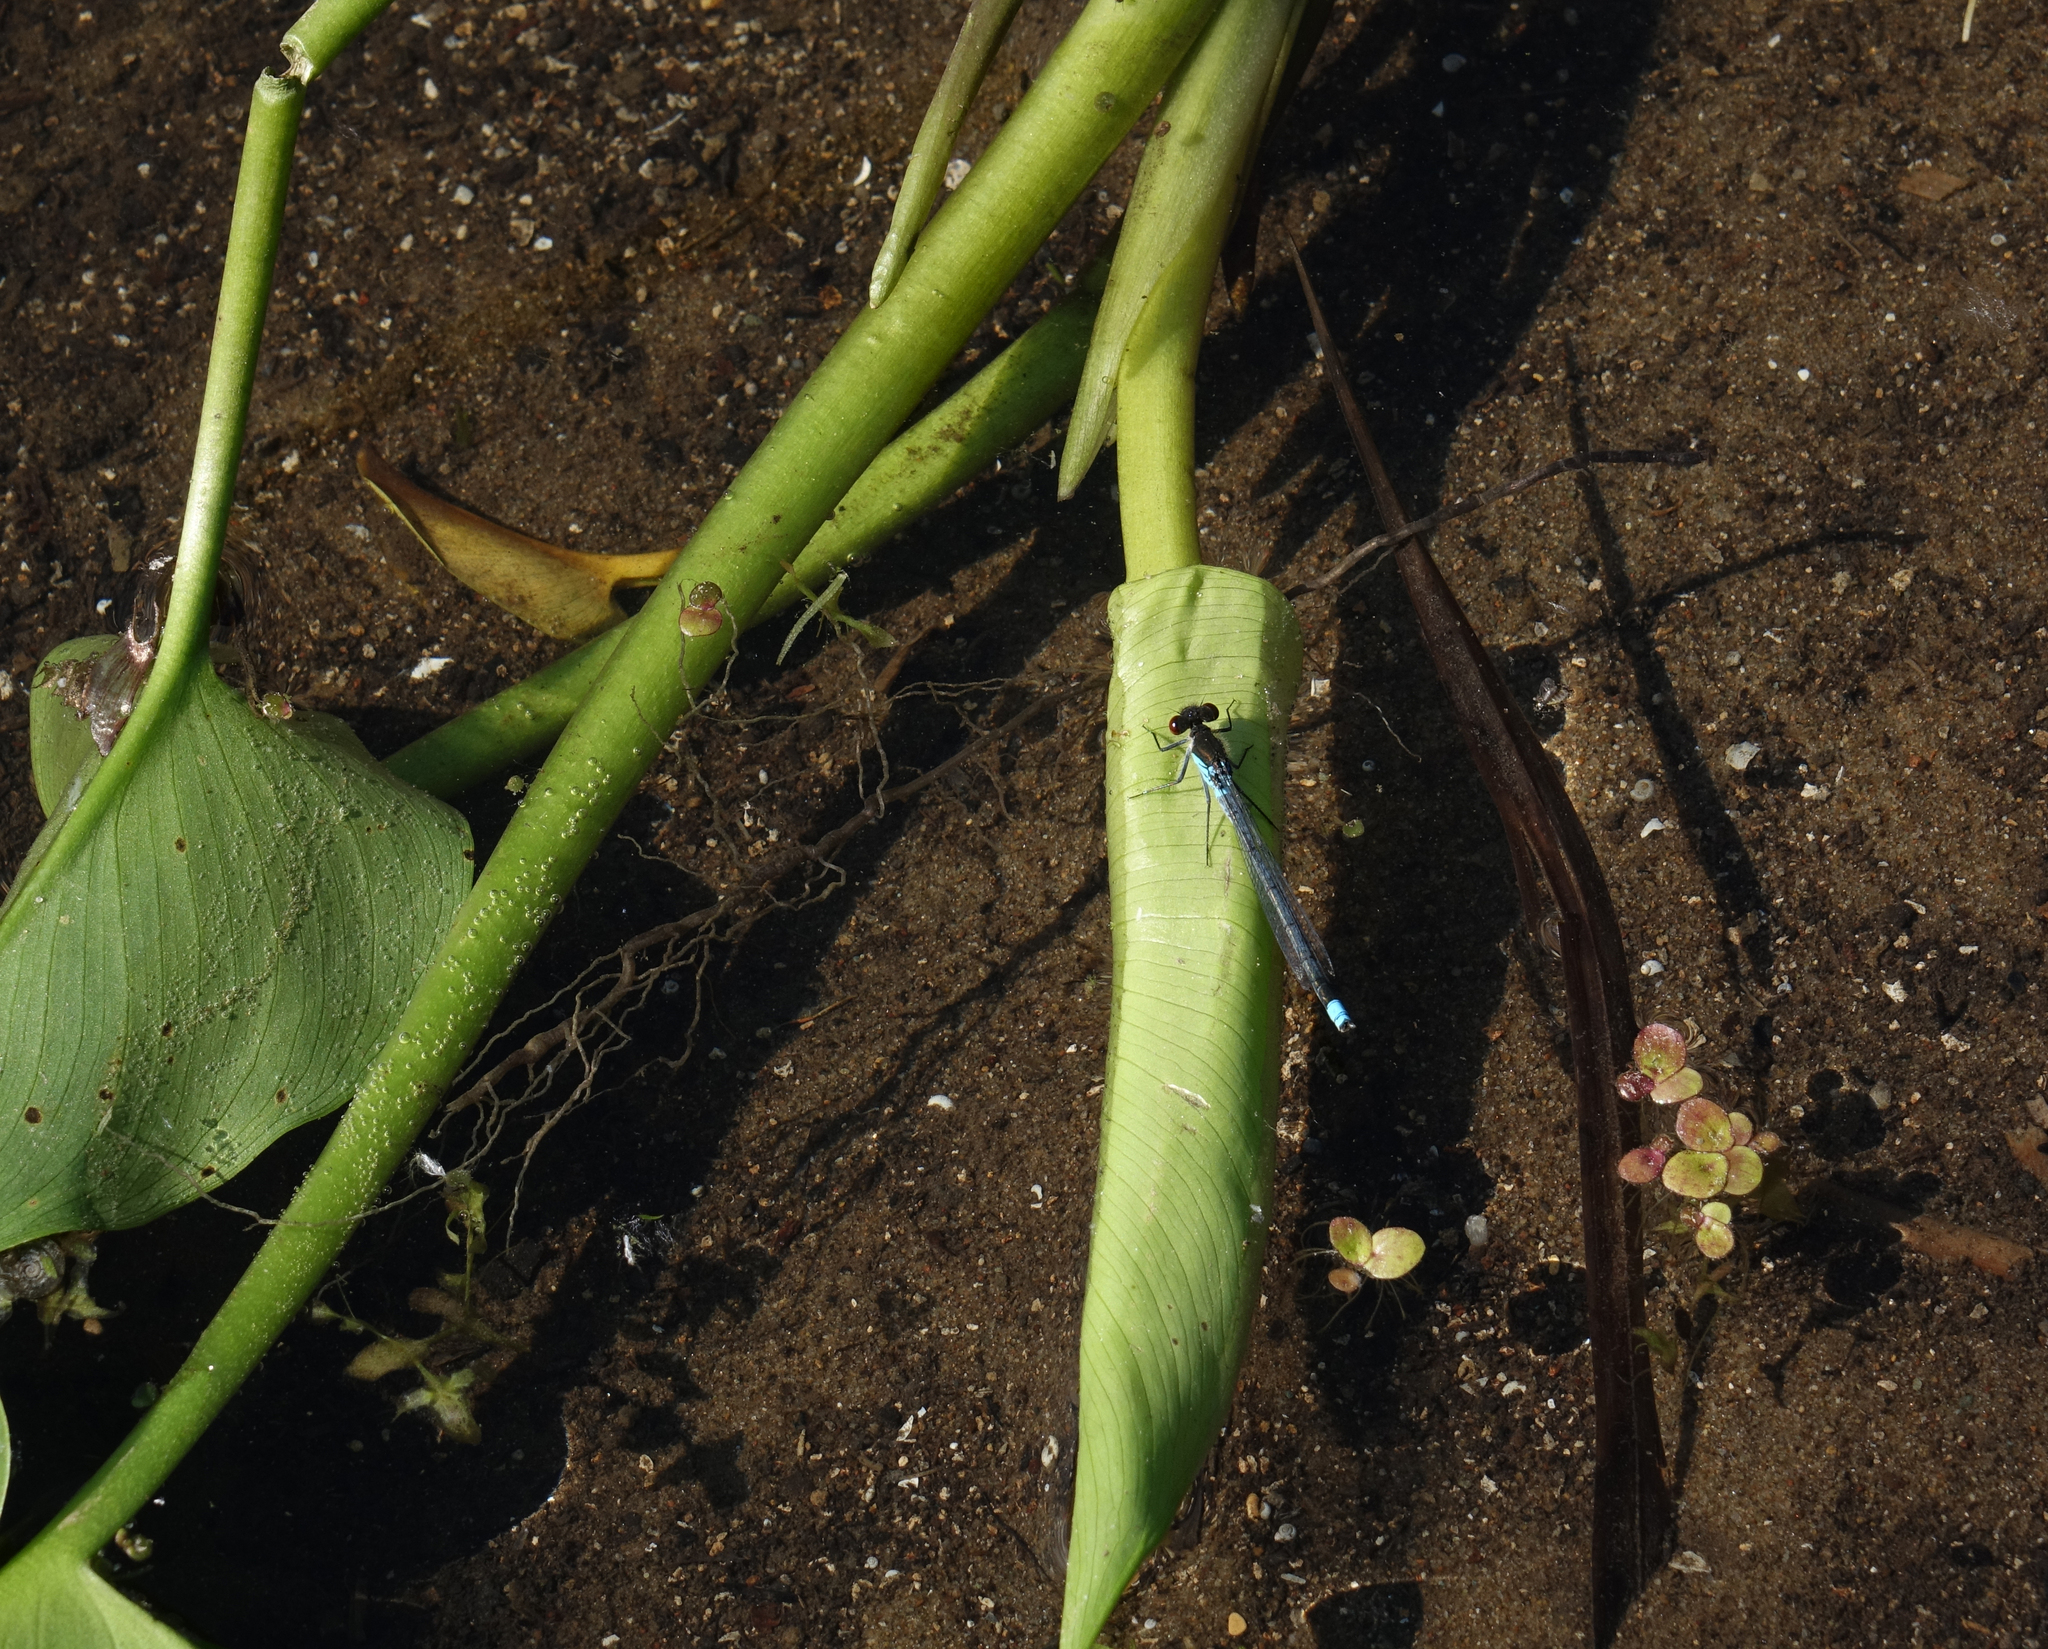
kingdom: Plantae
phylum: Tracheophyta
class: Liliopsida
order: Alismatales
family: Araceae
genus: Calla
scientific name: Calla palustris
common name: Bog arum
